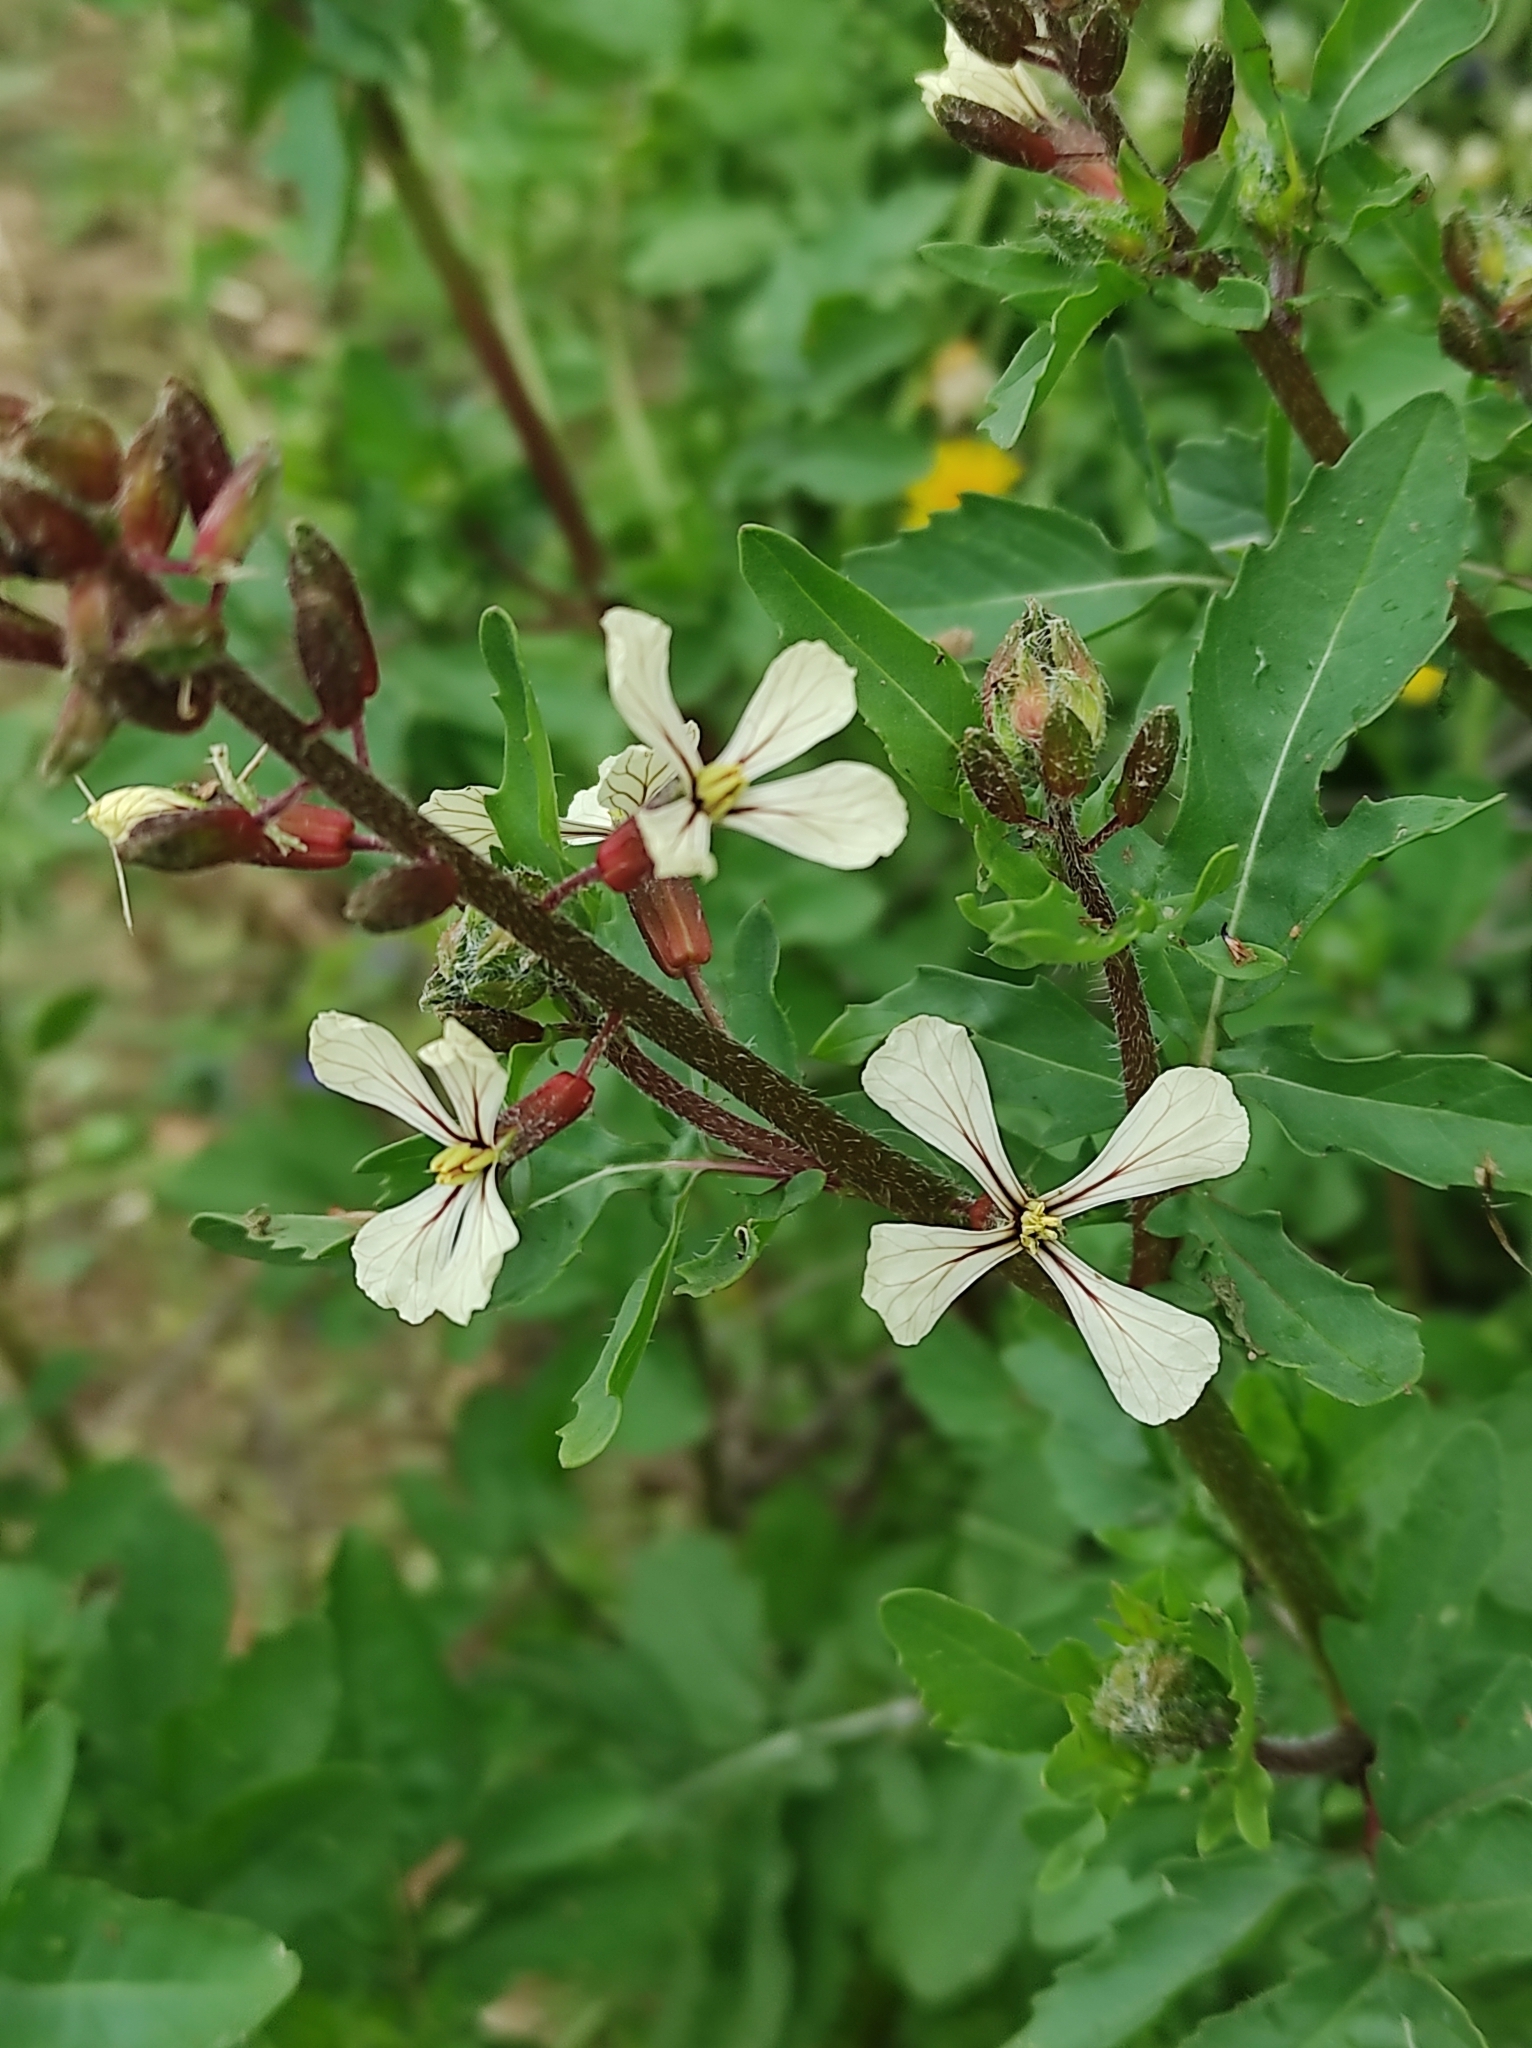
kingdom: Plantae
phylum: Tracheophyta
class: Magnoliopsida
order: Brassicales
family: Brassicaceae
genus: Eruca
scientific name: Eruca vesicaria
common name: Garden rocket
